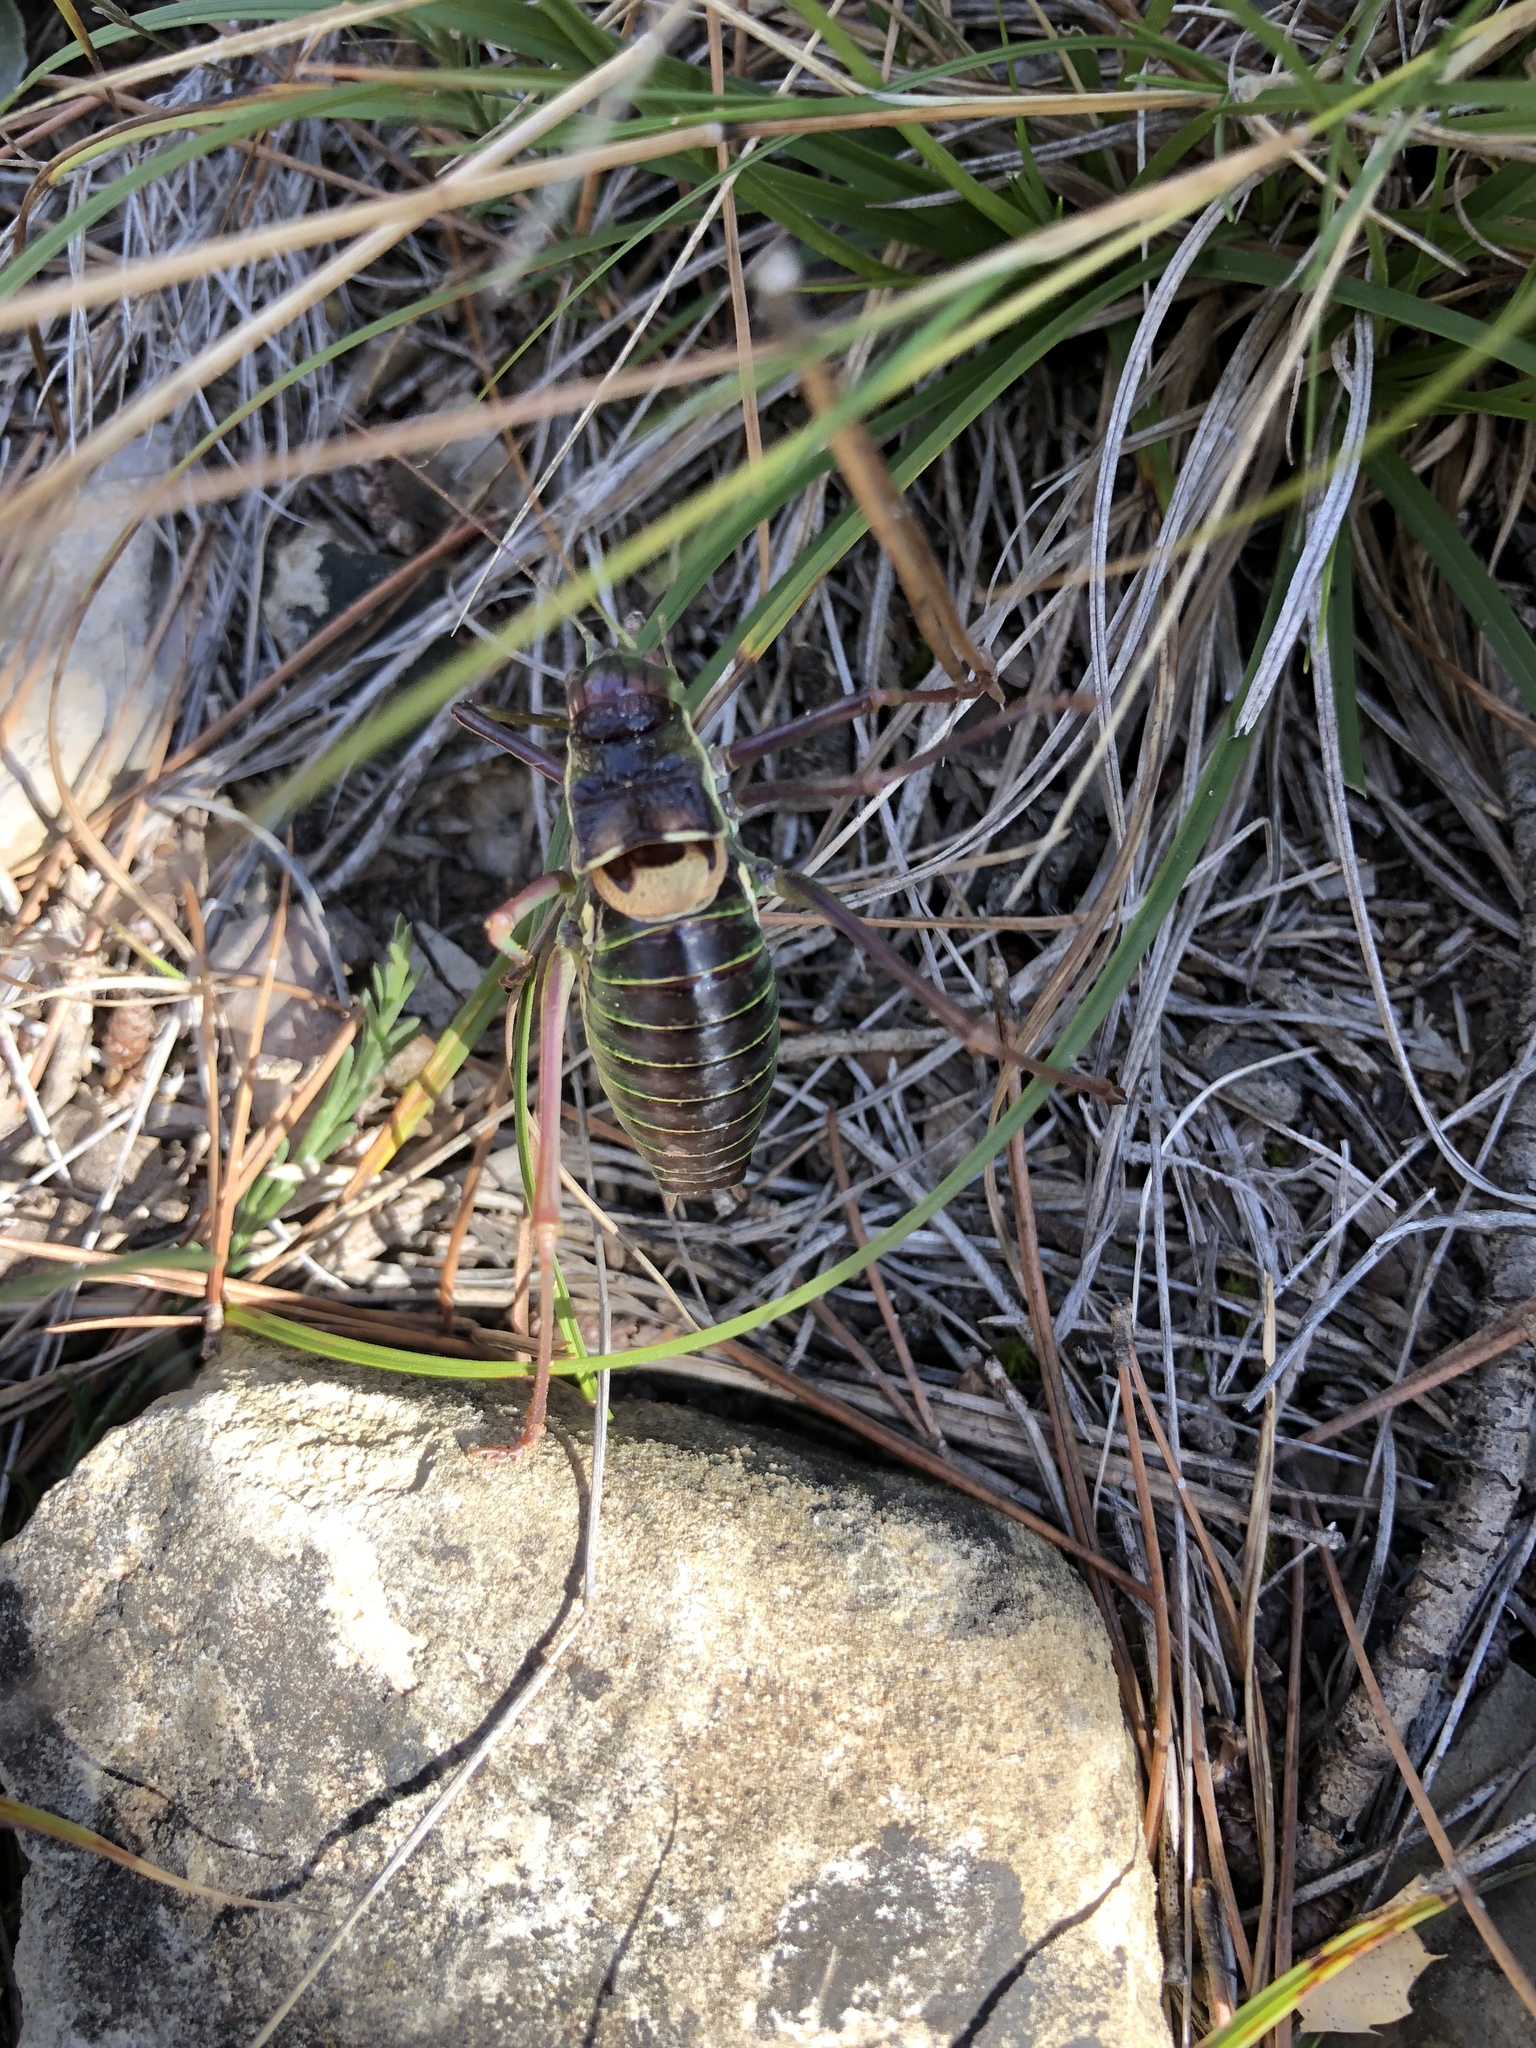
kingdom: Animalia
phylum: Arthropoda
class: Insecta
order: Orthoptera
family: Tettigoniidae
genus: Parasteropleurus
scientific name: Parasteropleurus perezii
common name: Perez's saddle bush-cricke
